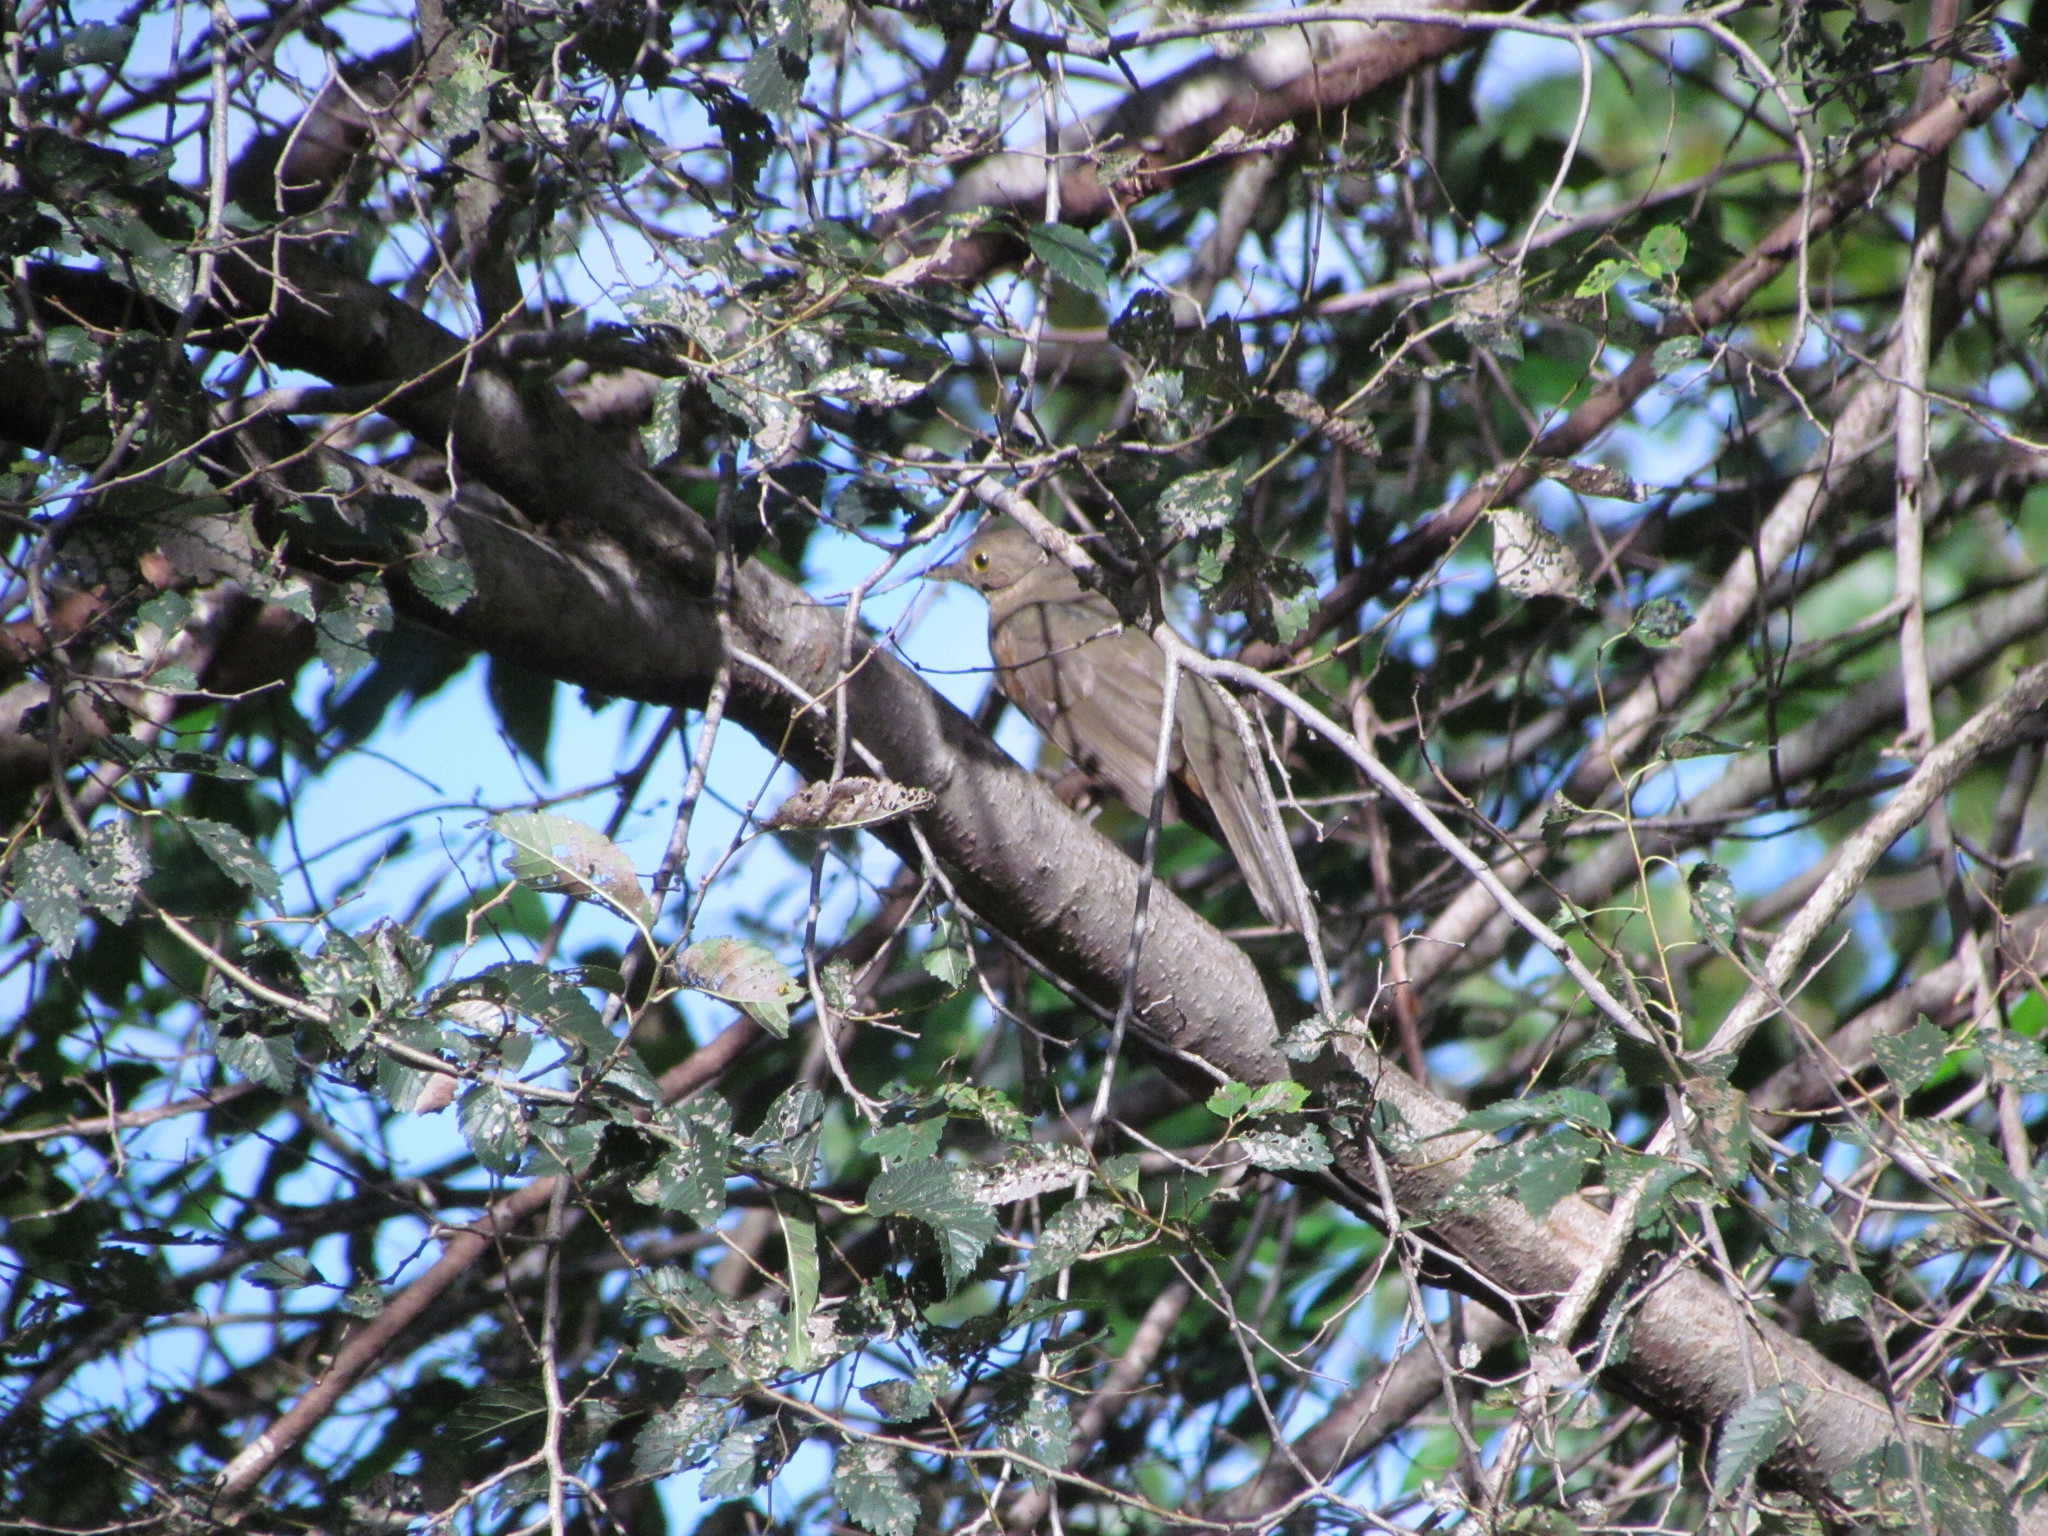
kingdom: Animalia
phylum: Chordata
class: Aves
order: Passeriformes
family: Turdidae
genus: Turdus
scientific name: Turdus rufiventris
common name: Rufous-bellied thrush
